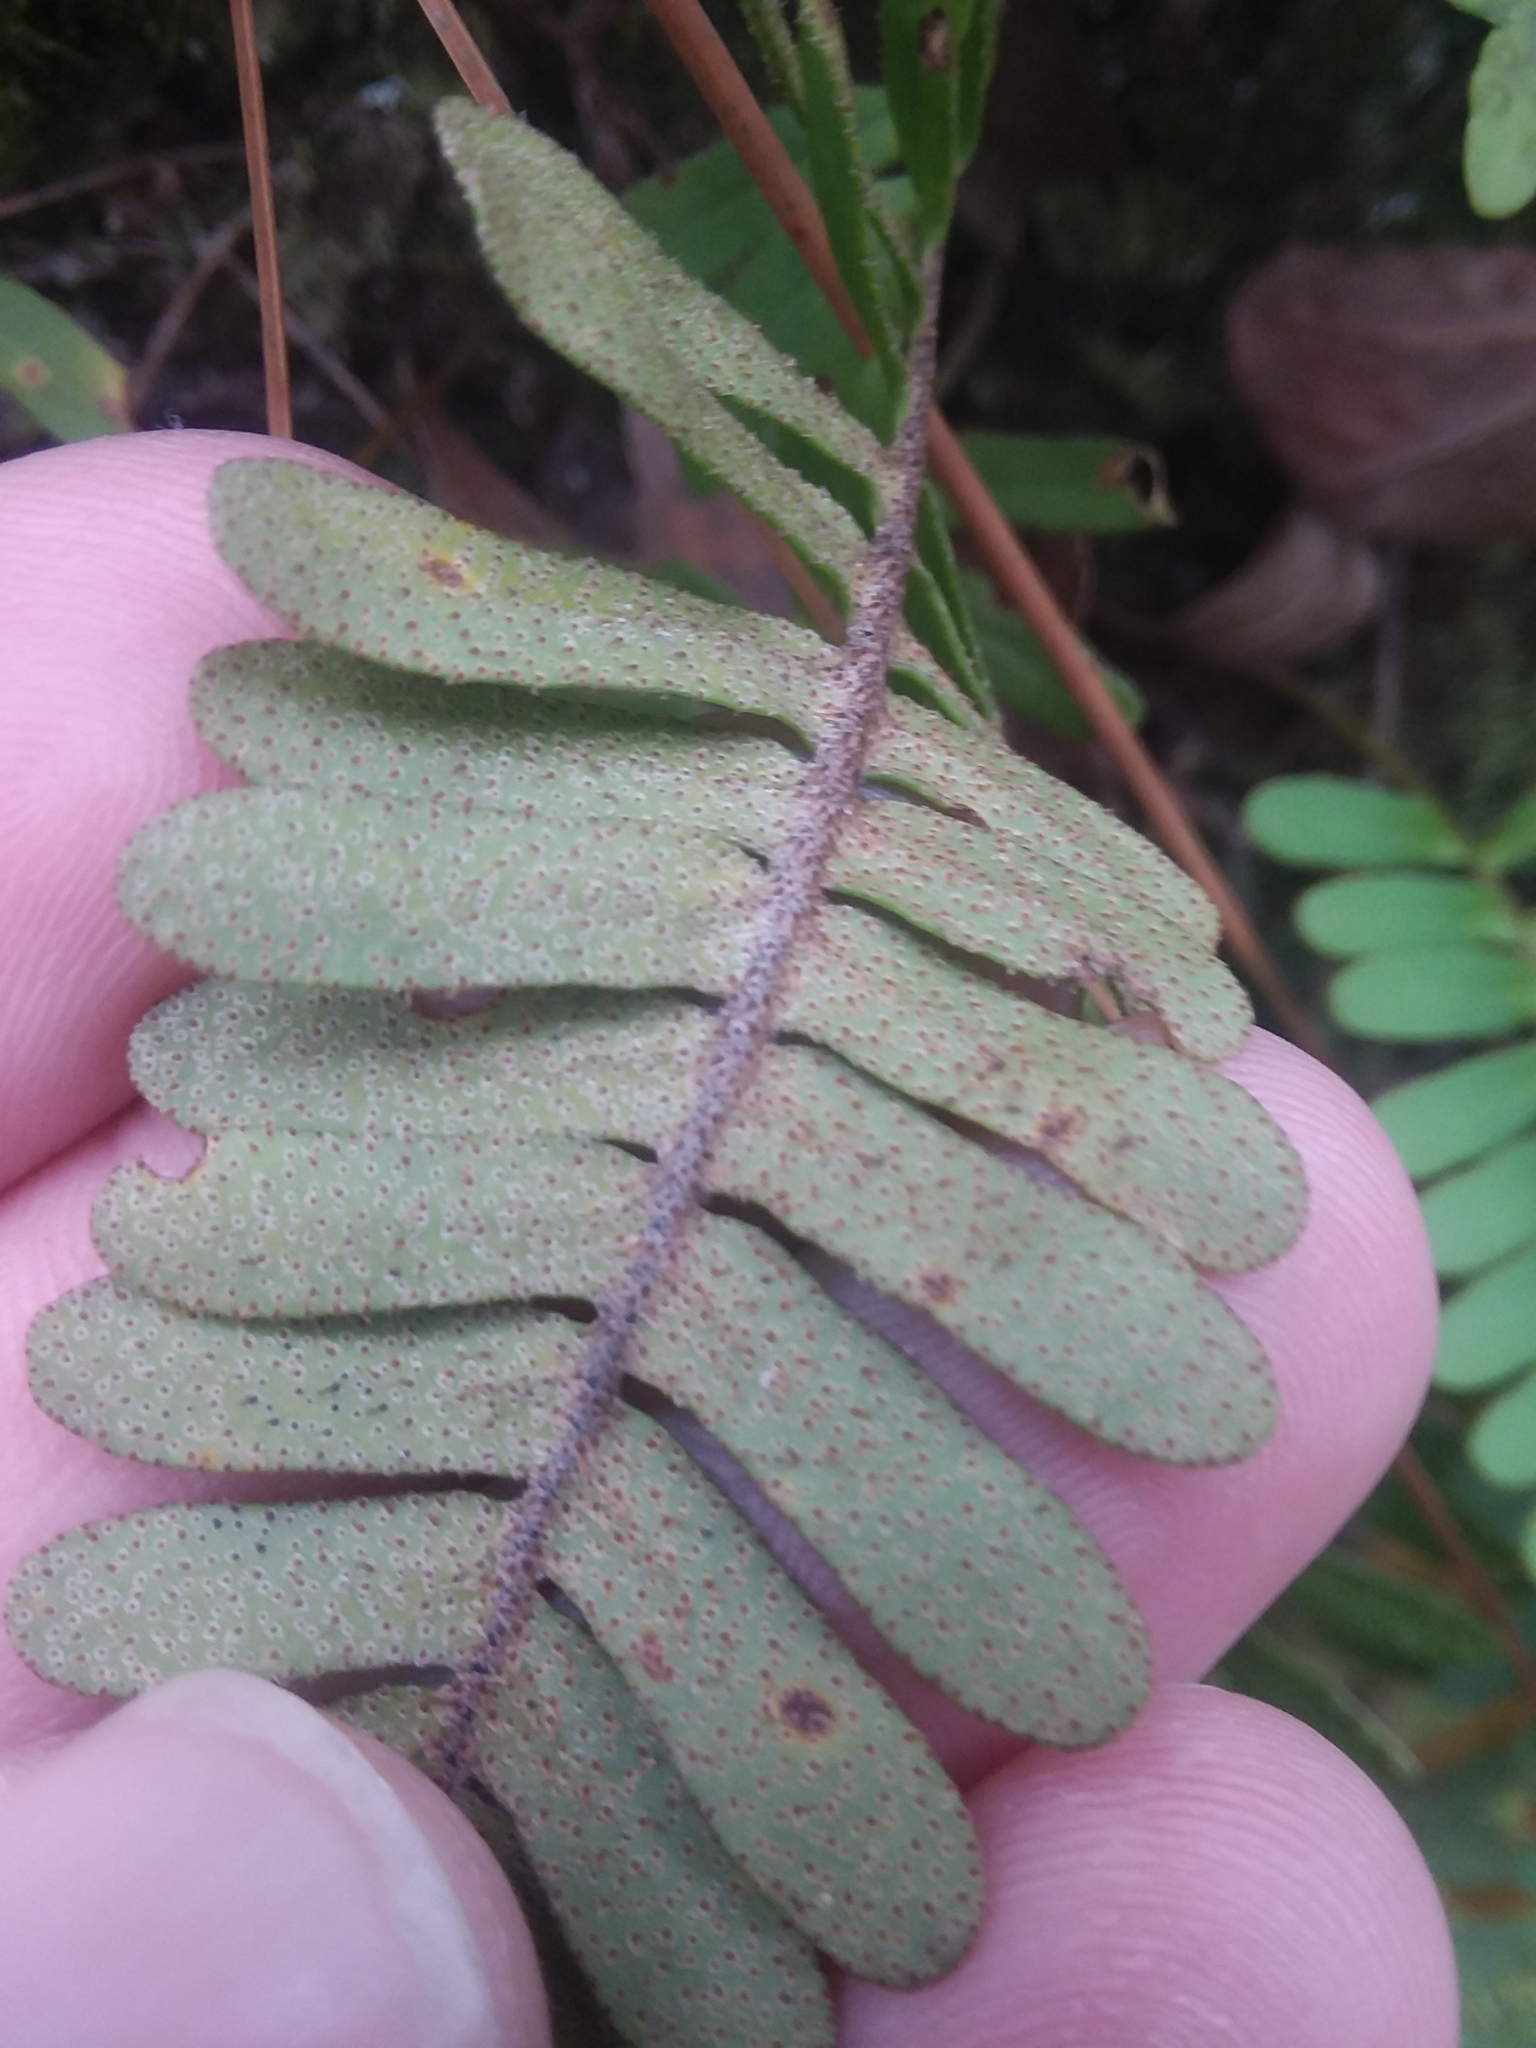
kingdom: Plantae
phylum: Tracheophyta
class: Polypodiopsida
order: Polypodiales
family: Polypodiaceae
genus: Pleopeltis
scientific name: Pleopeltis michauxiana
